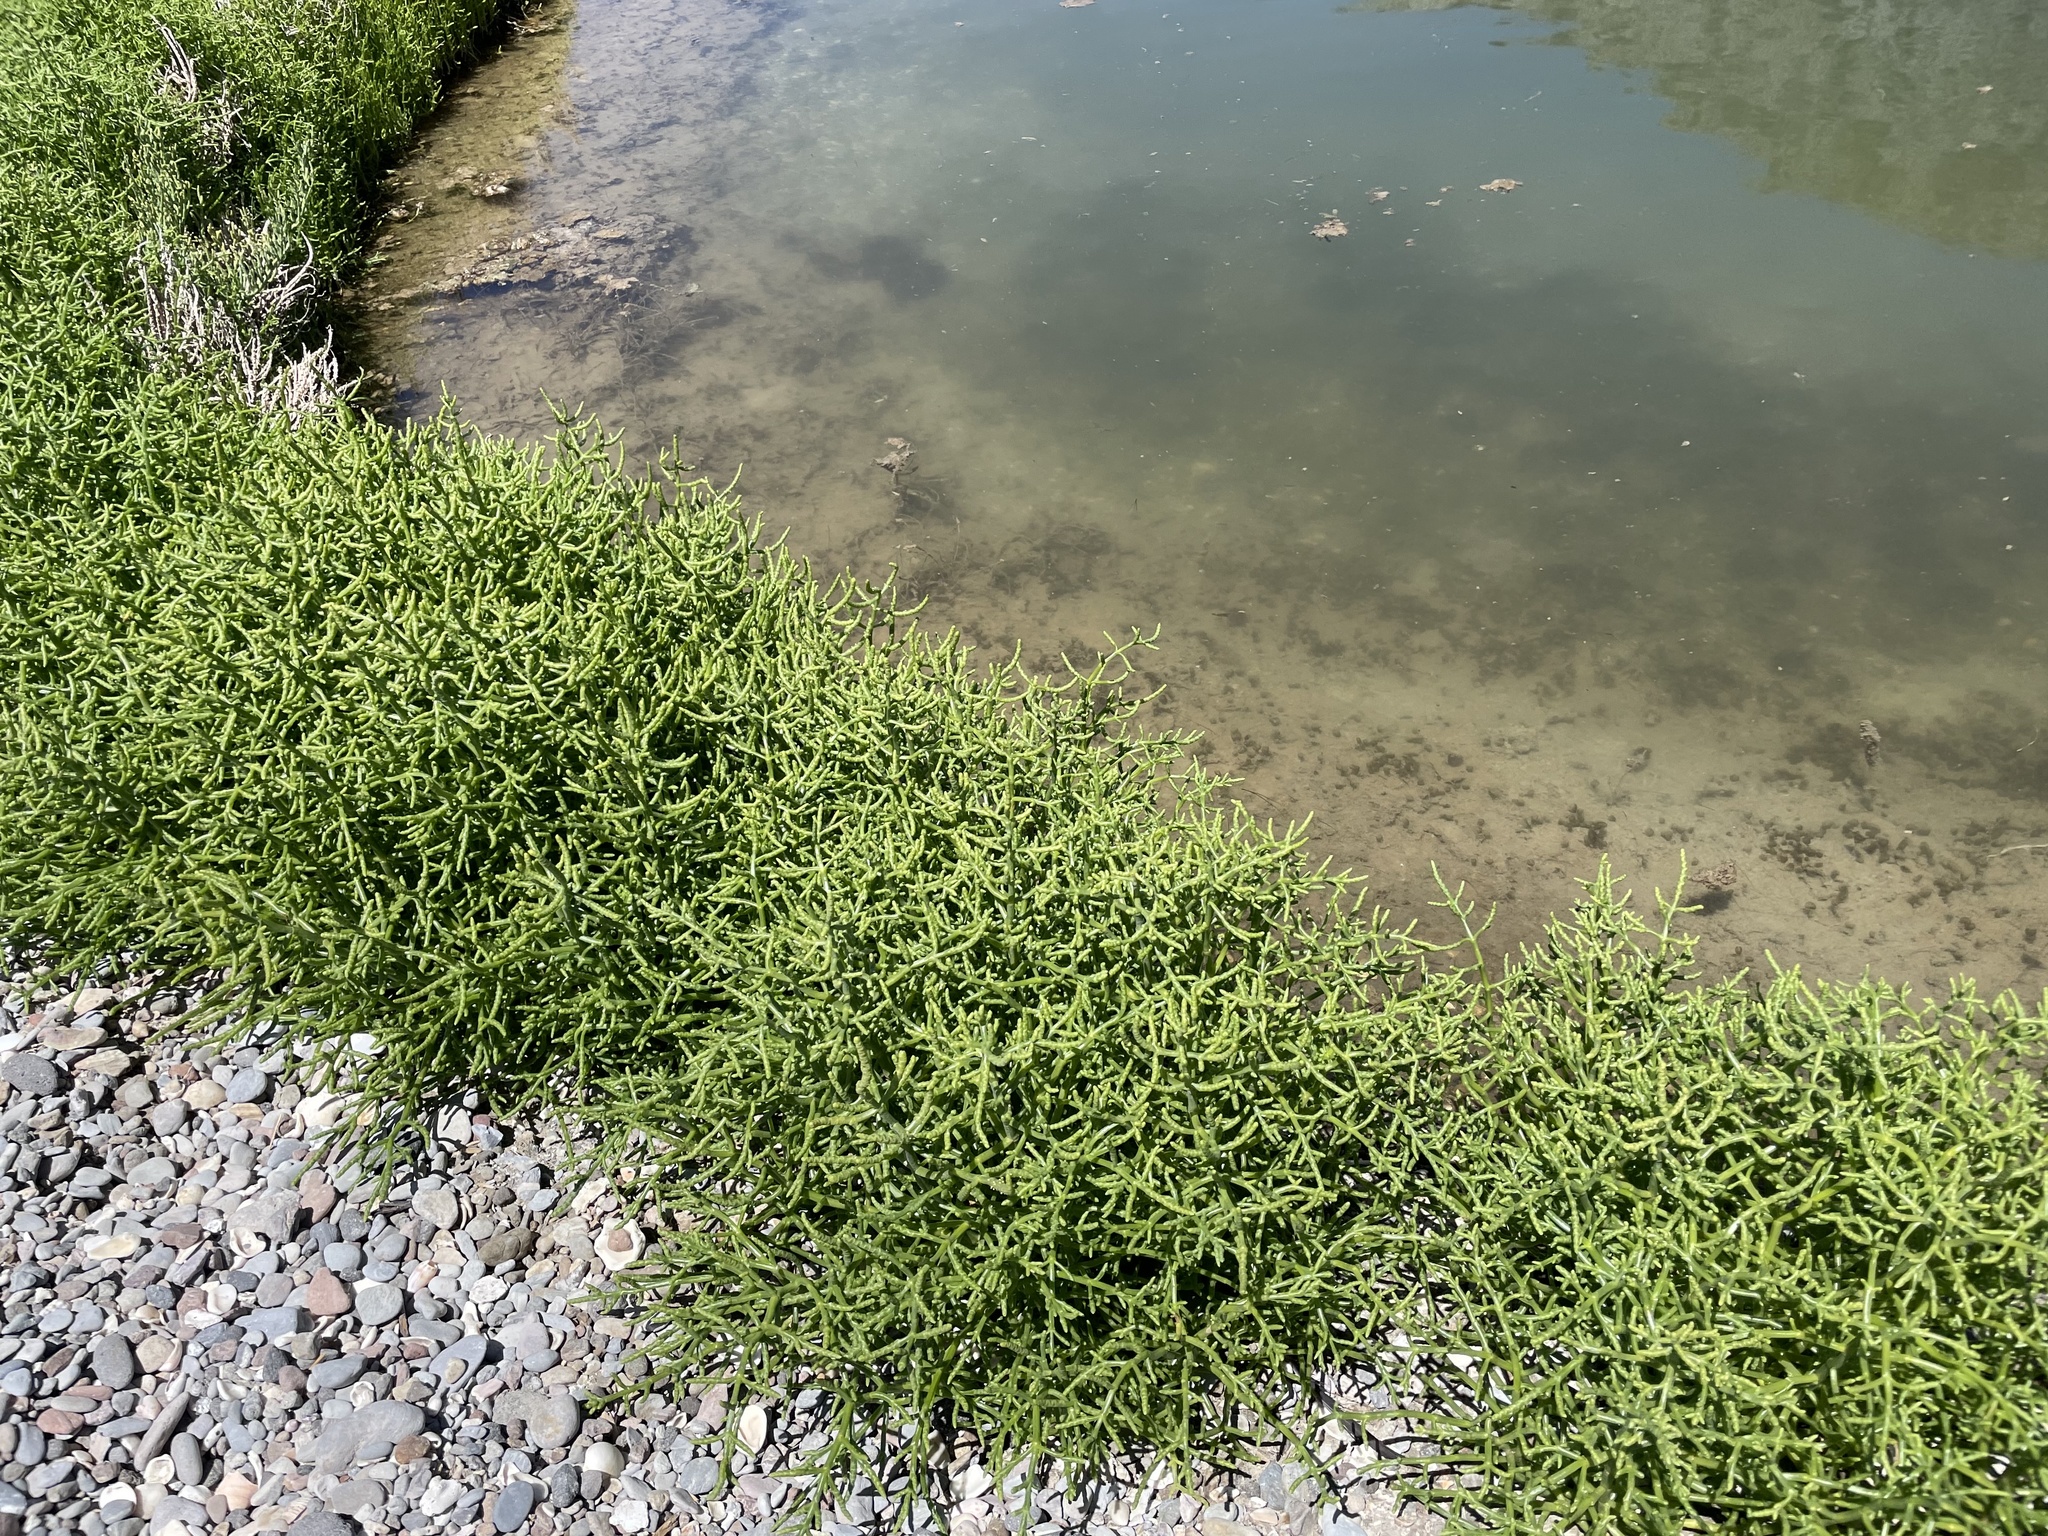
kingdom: Plantae
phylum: Tracheophyta
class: Magnoliopsida
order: Caryophyllales
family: Amaranthaceae
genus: Salicornia
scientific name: Salicornia bigelovii
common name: Dwarf glasswort
